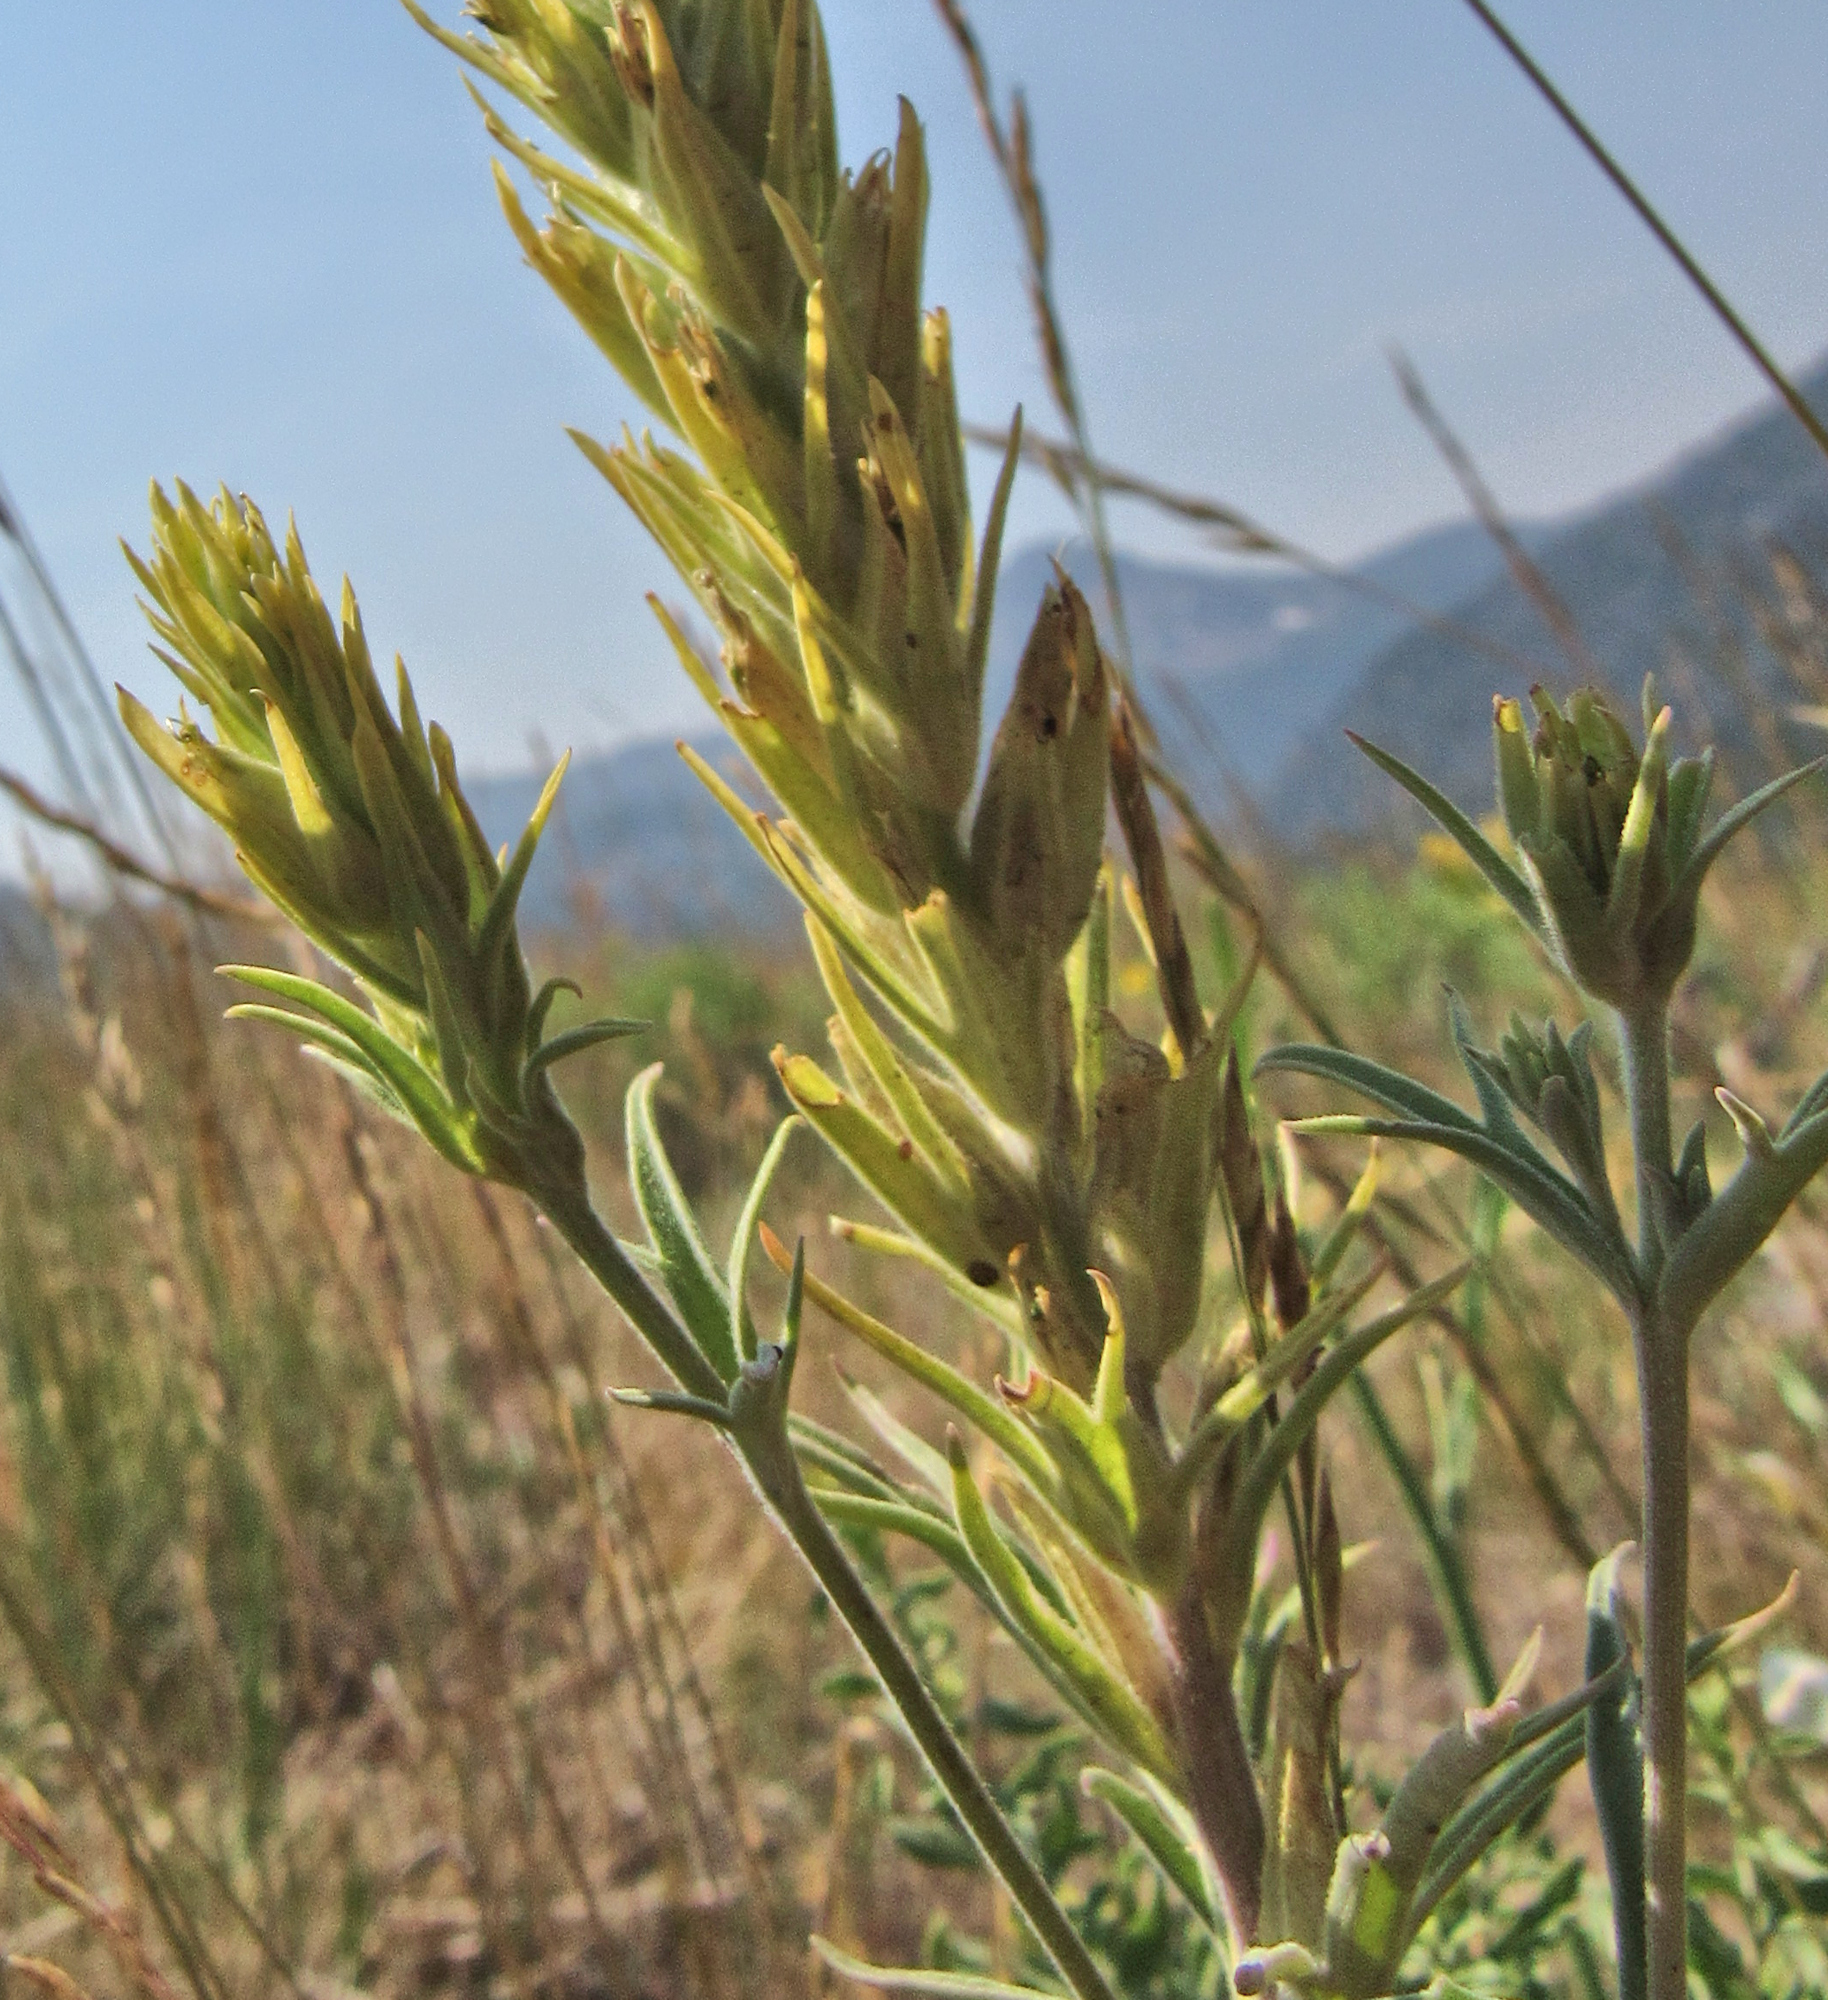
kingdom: Plantae
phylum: Tracheophyta
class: Magnoliopsida
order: Lamiales
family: Orobanchaceae
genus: Castilleja
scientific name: Castilleja flava
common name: Yellow paintbrush
